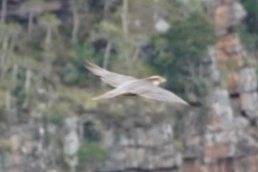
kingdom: Animalia
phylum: Chordata
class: Aves
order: Falconiformes
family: Falconidae
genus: Falco
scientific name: Falco biarmicus
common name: Lanner falcon
